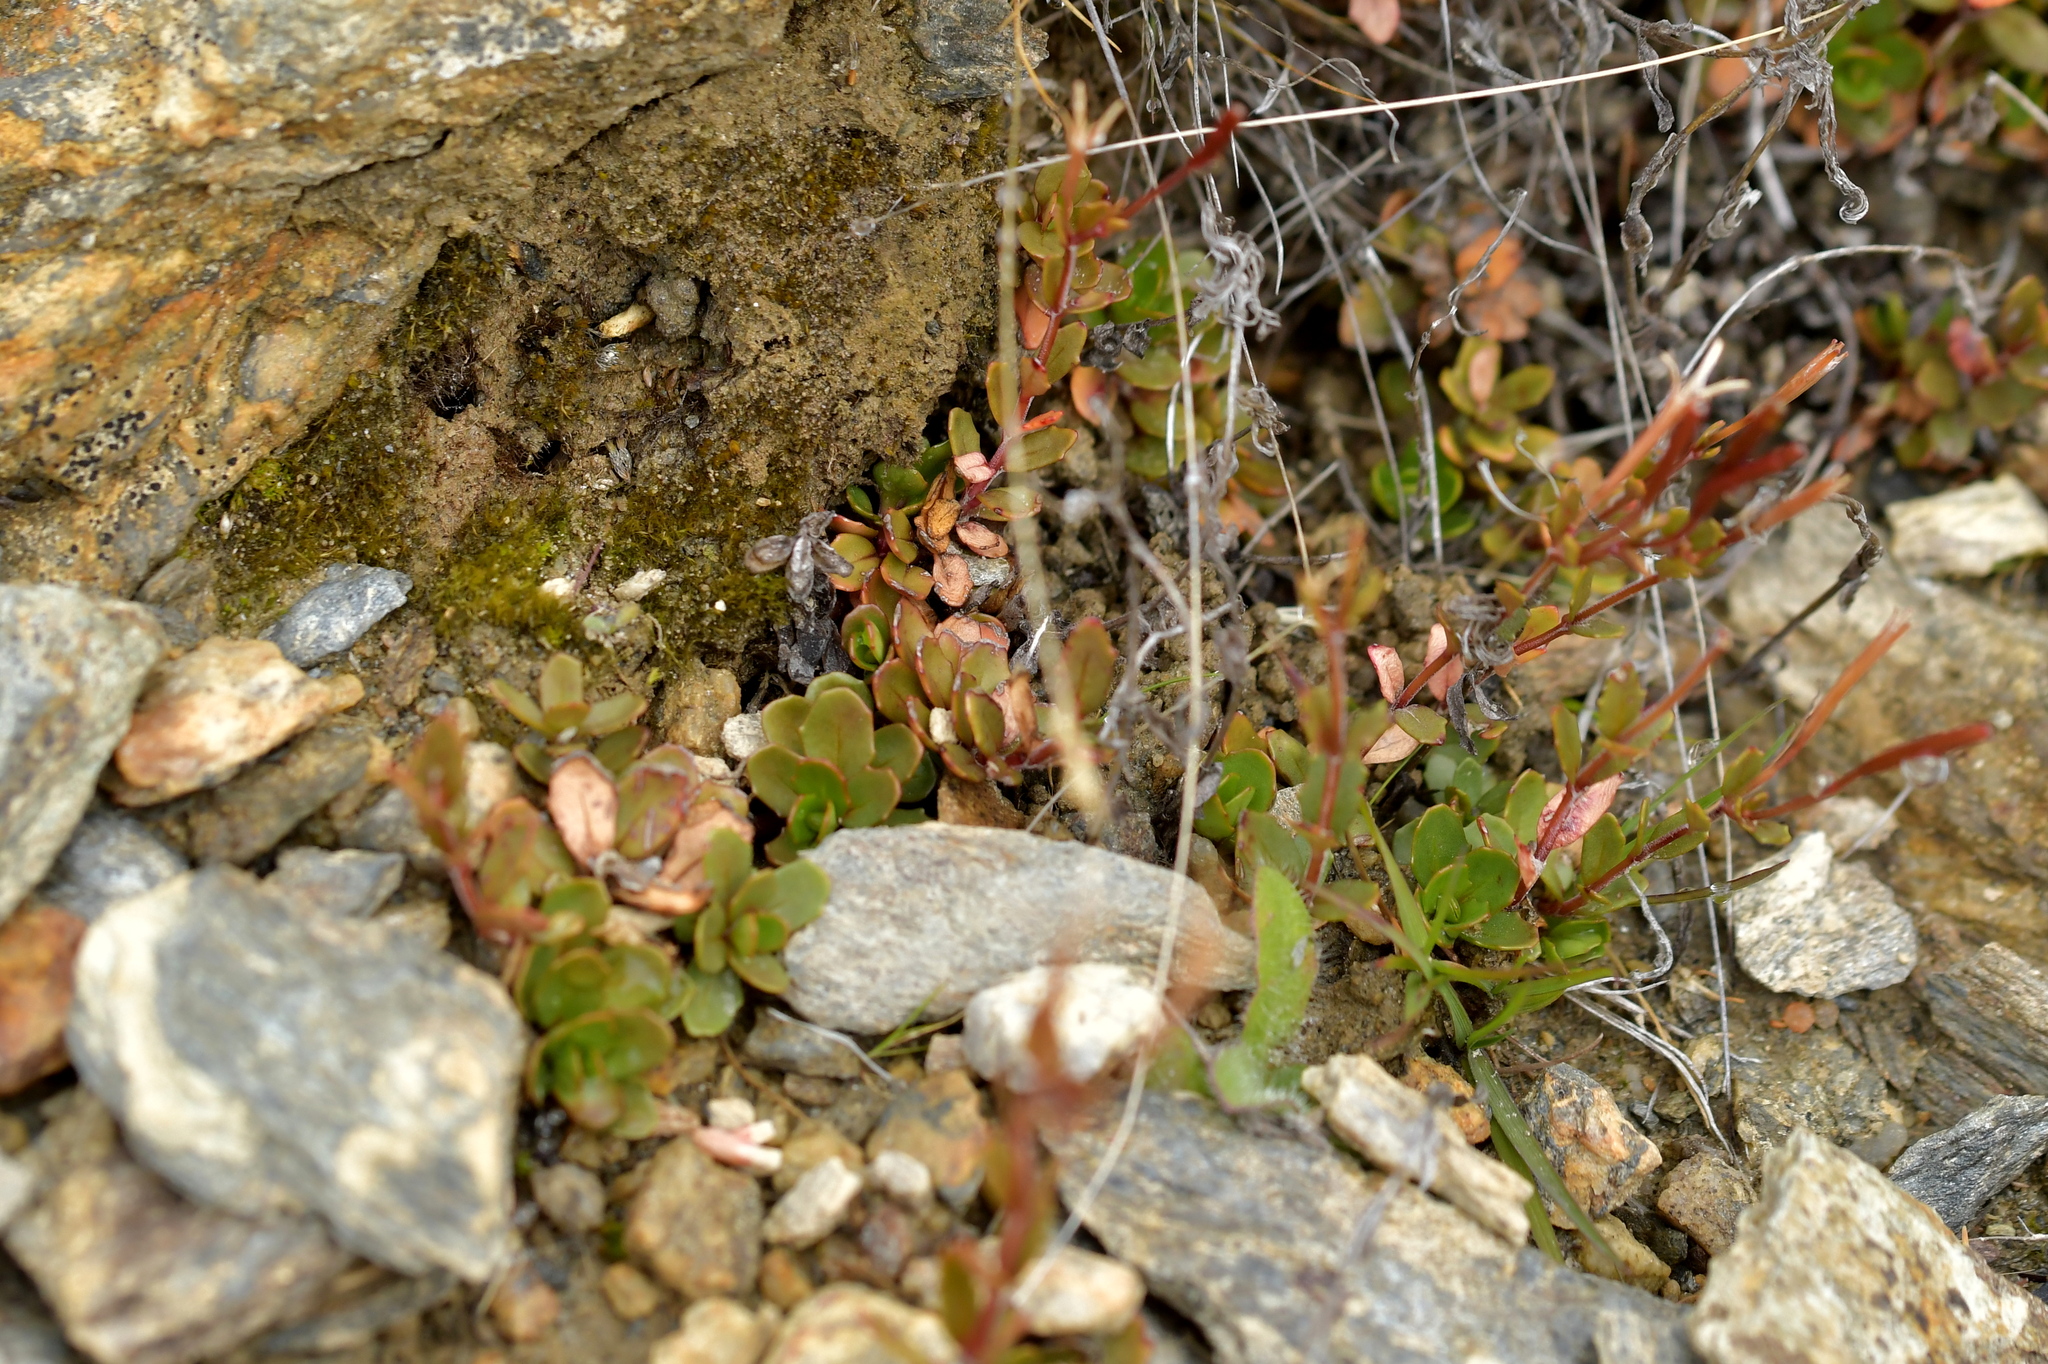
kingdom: Plantae
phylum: Tracheophyta
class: Magnoliopsida
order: Myrtales
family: Onagraceae
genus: Epilobium
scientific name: Epilobium tasmanicum
